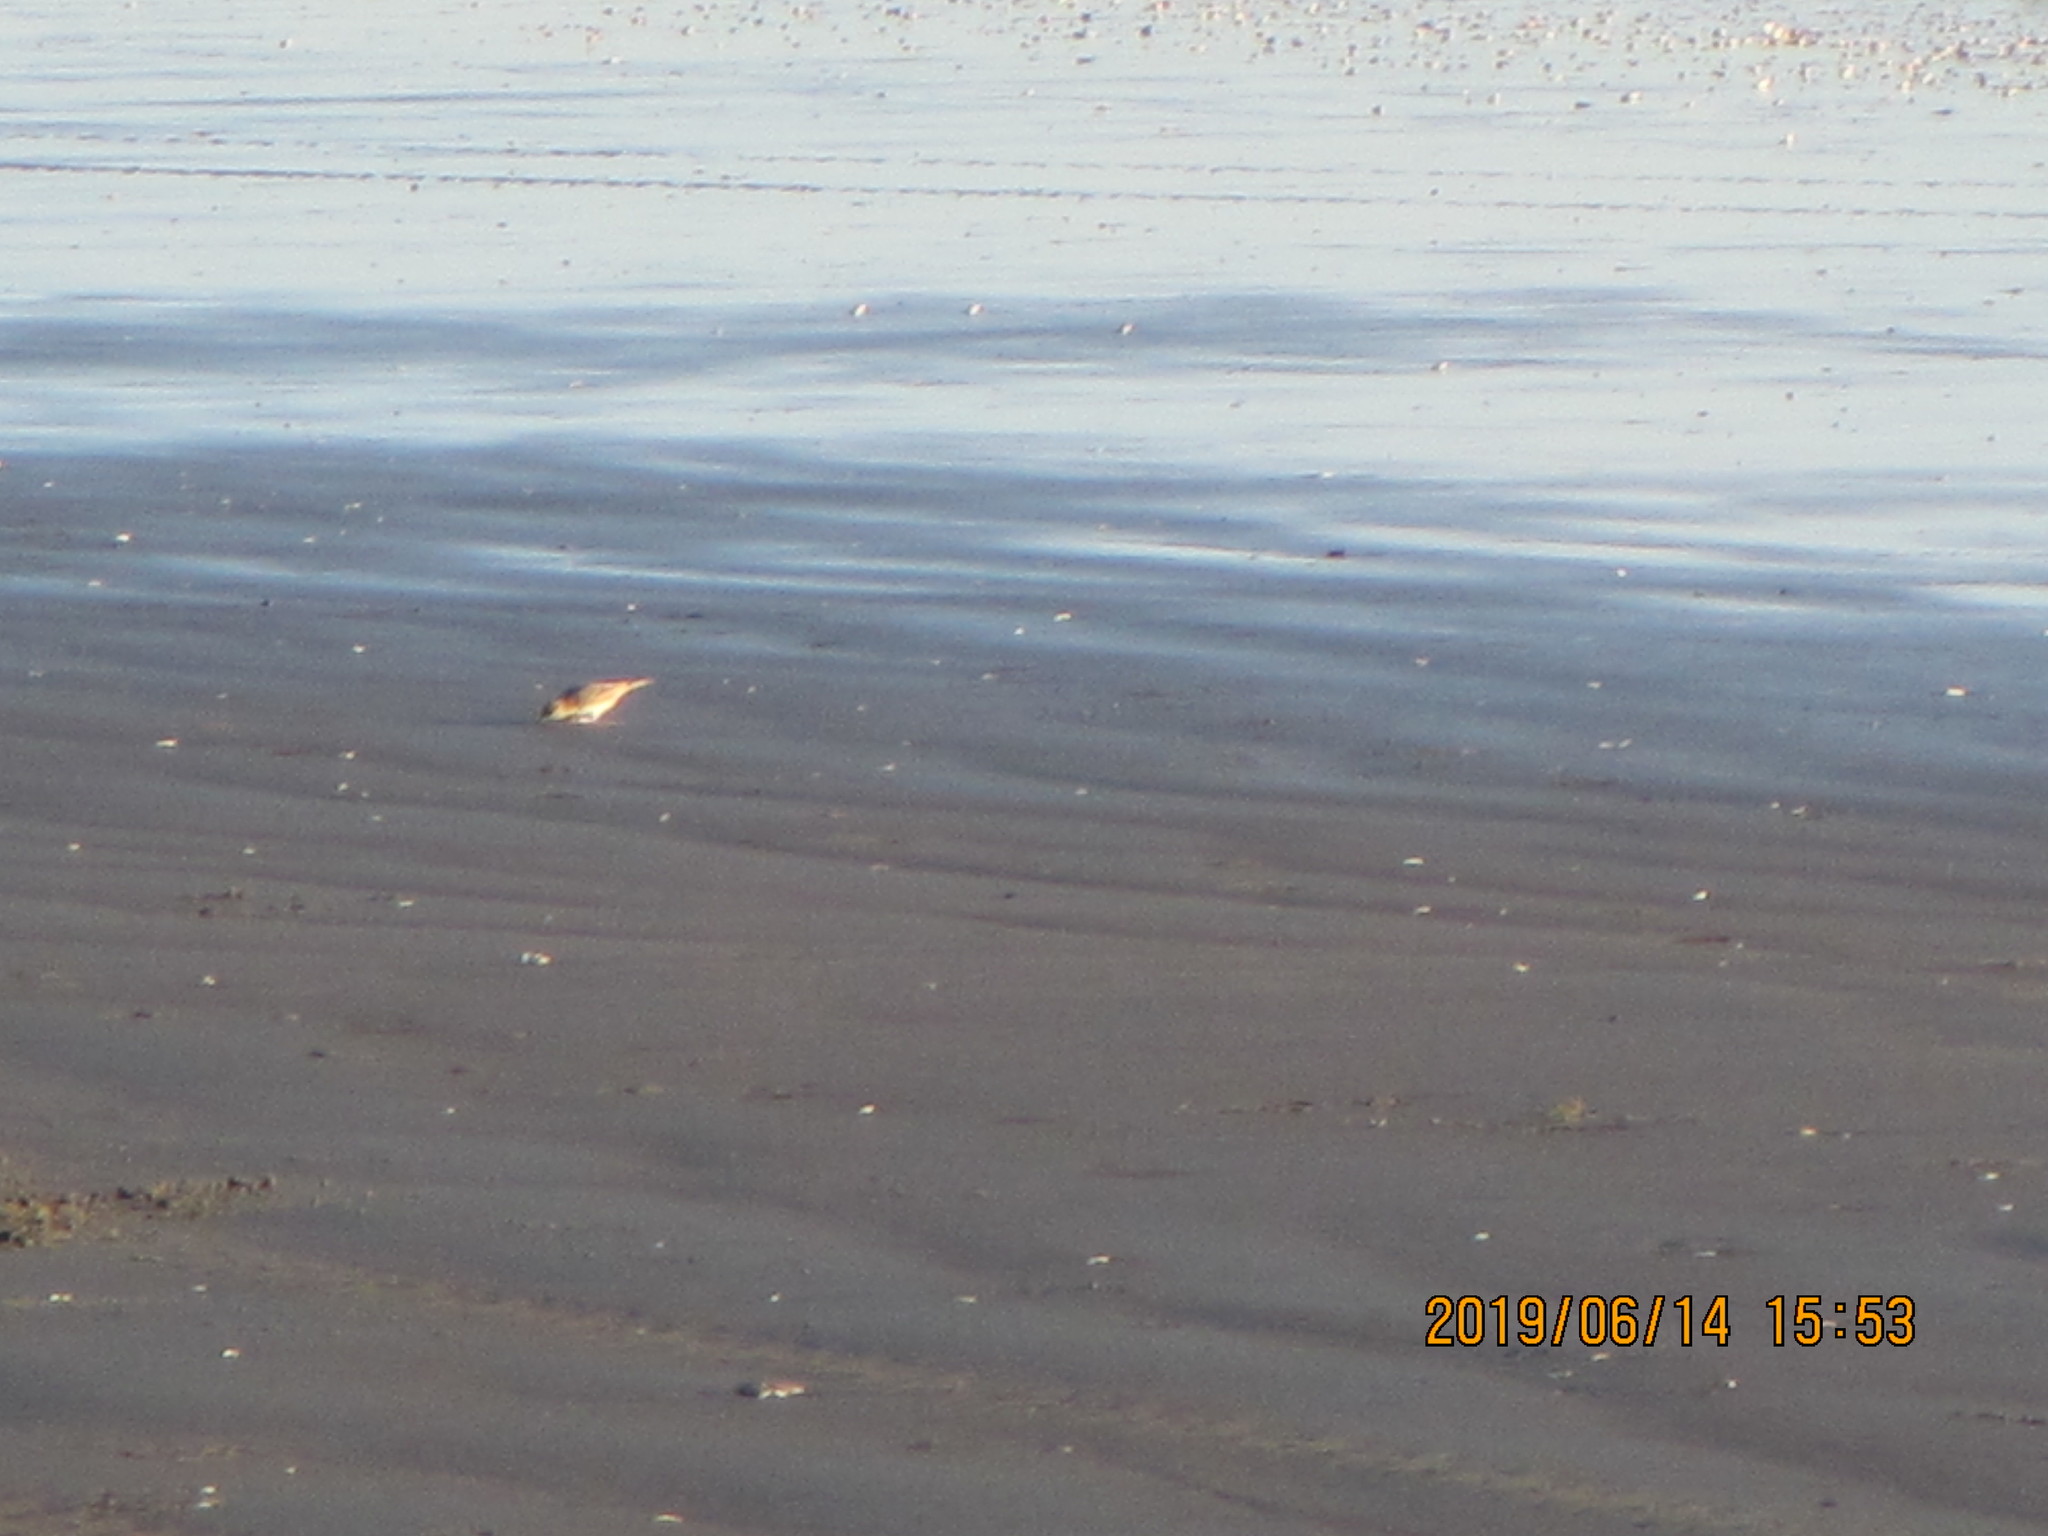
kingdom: Animalia
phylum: Chordata
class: Aves
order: Passeriformes
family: Motacillidae
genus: Anthus
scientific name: Anthus novaeseelandiae
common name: New zealand pipit
